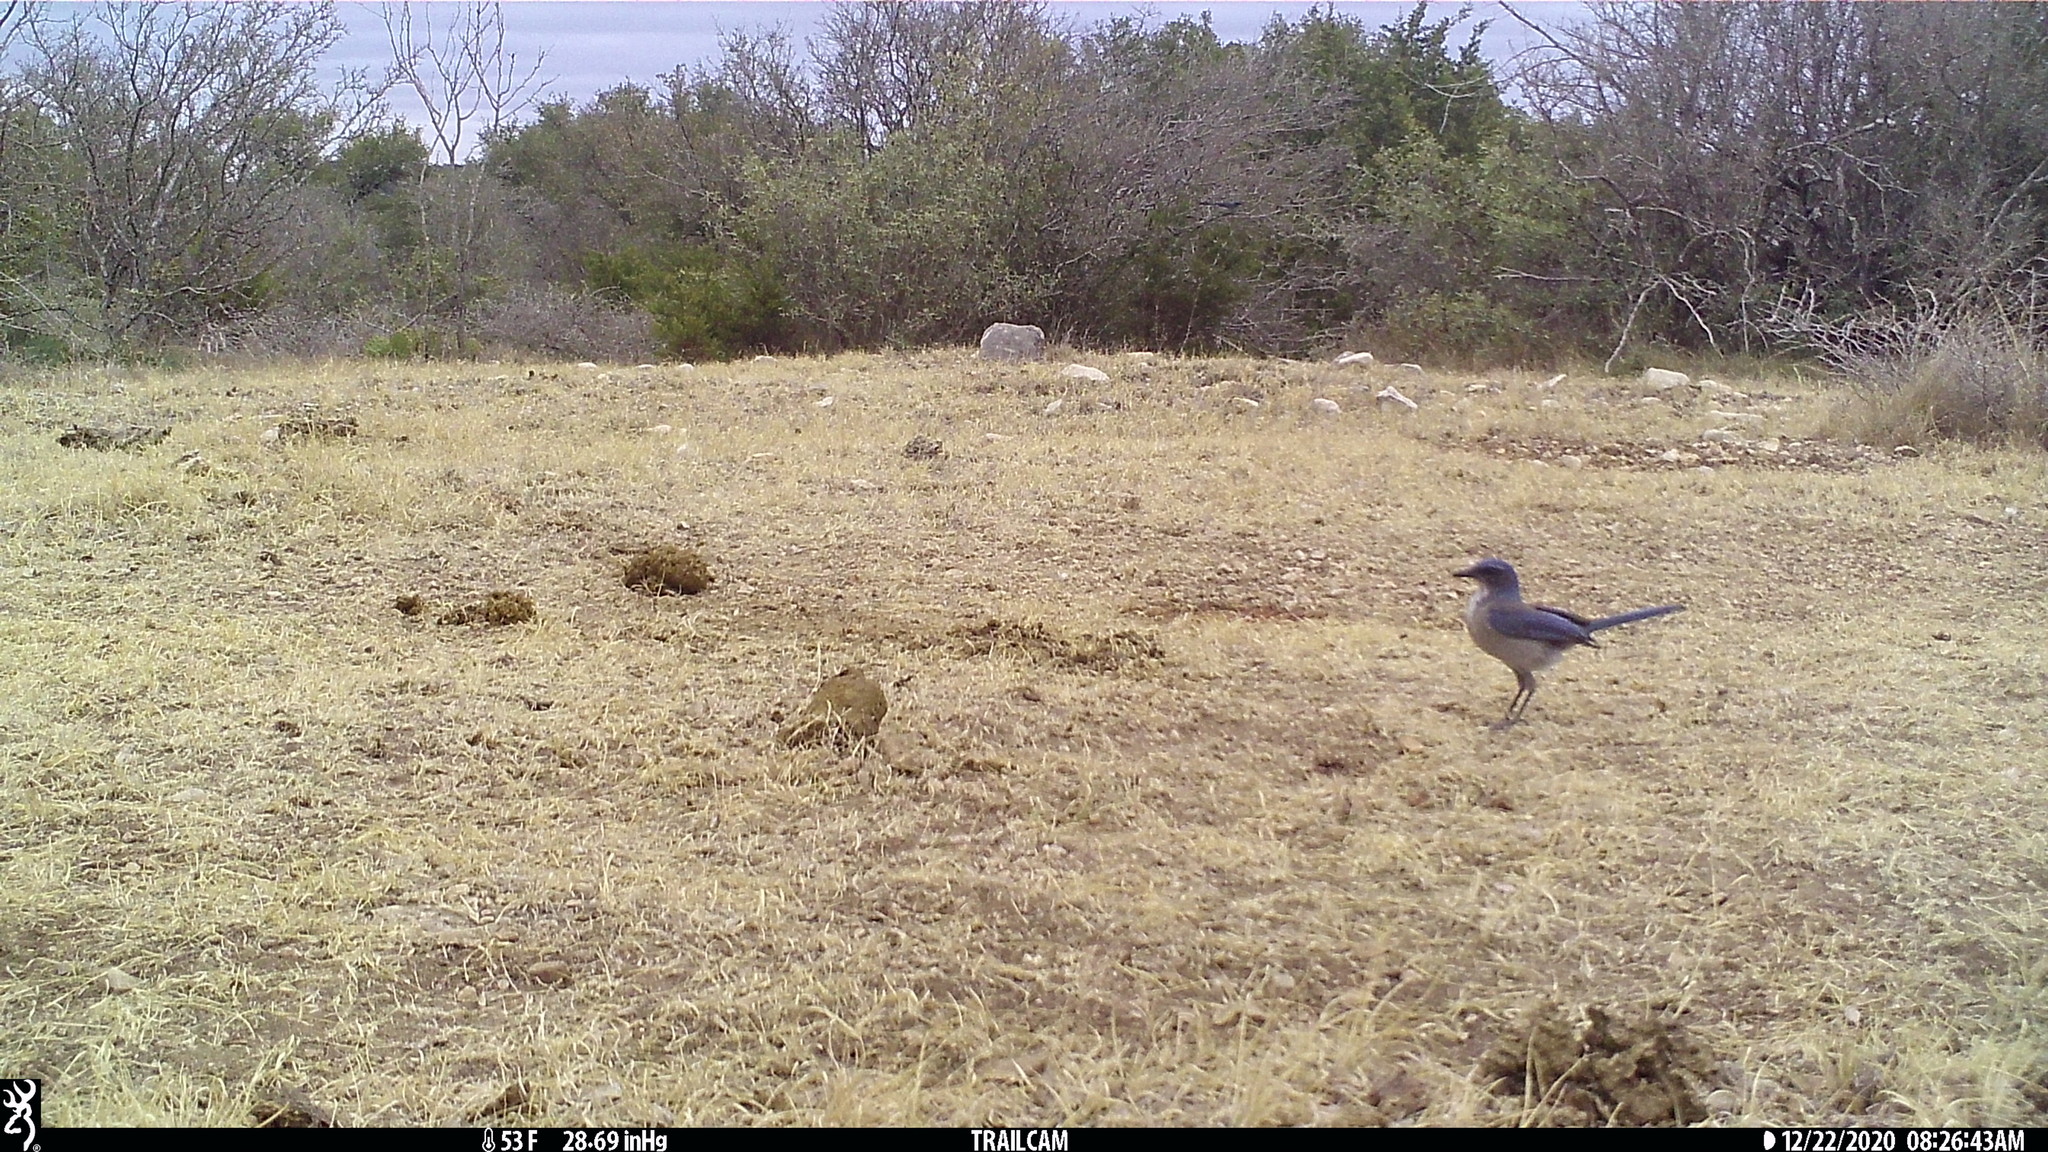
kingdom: Animalia
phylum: Chordata
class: Aves
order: Passeriformes
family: Corvidae
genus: Aphelocoma
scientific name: Aphelocoma woodhouseii
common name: Woodhouse's scrub-jay
